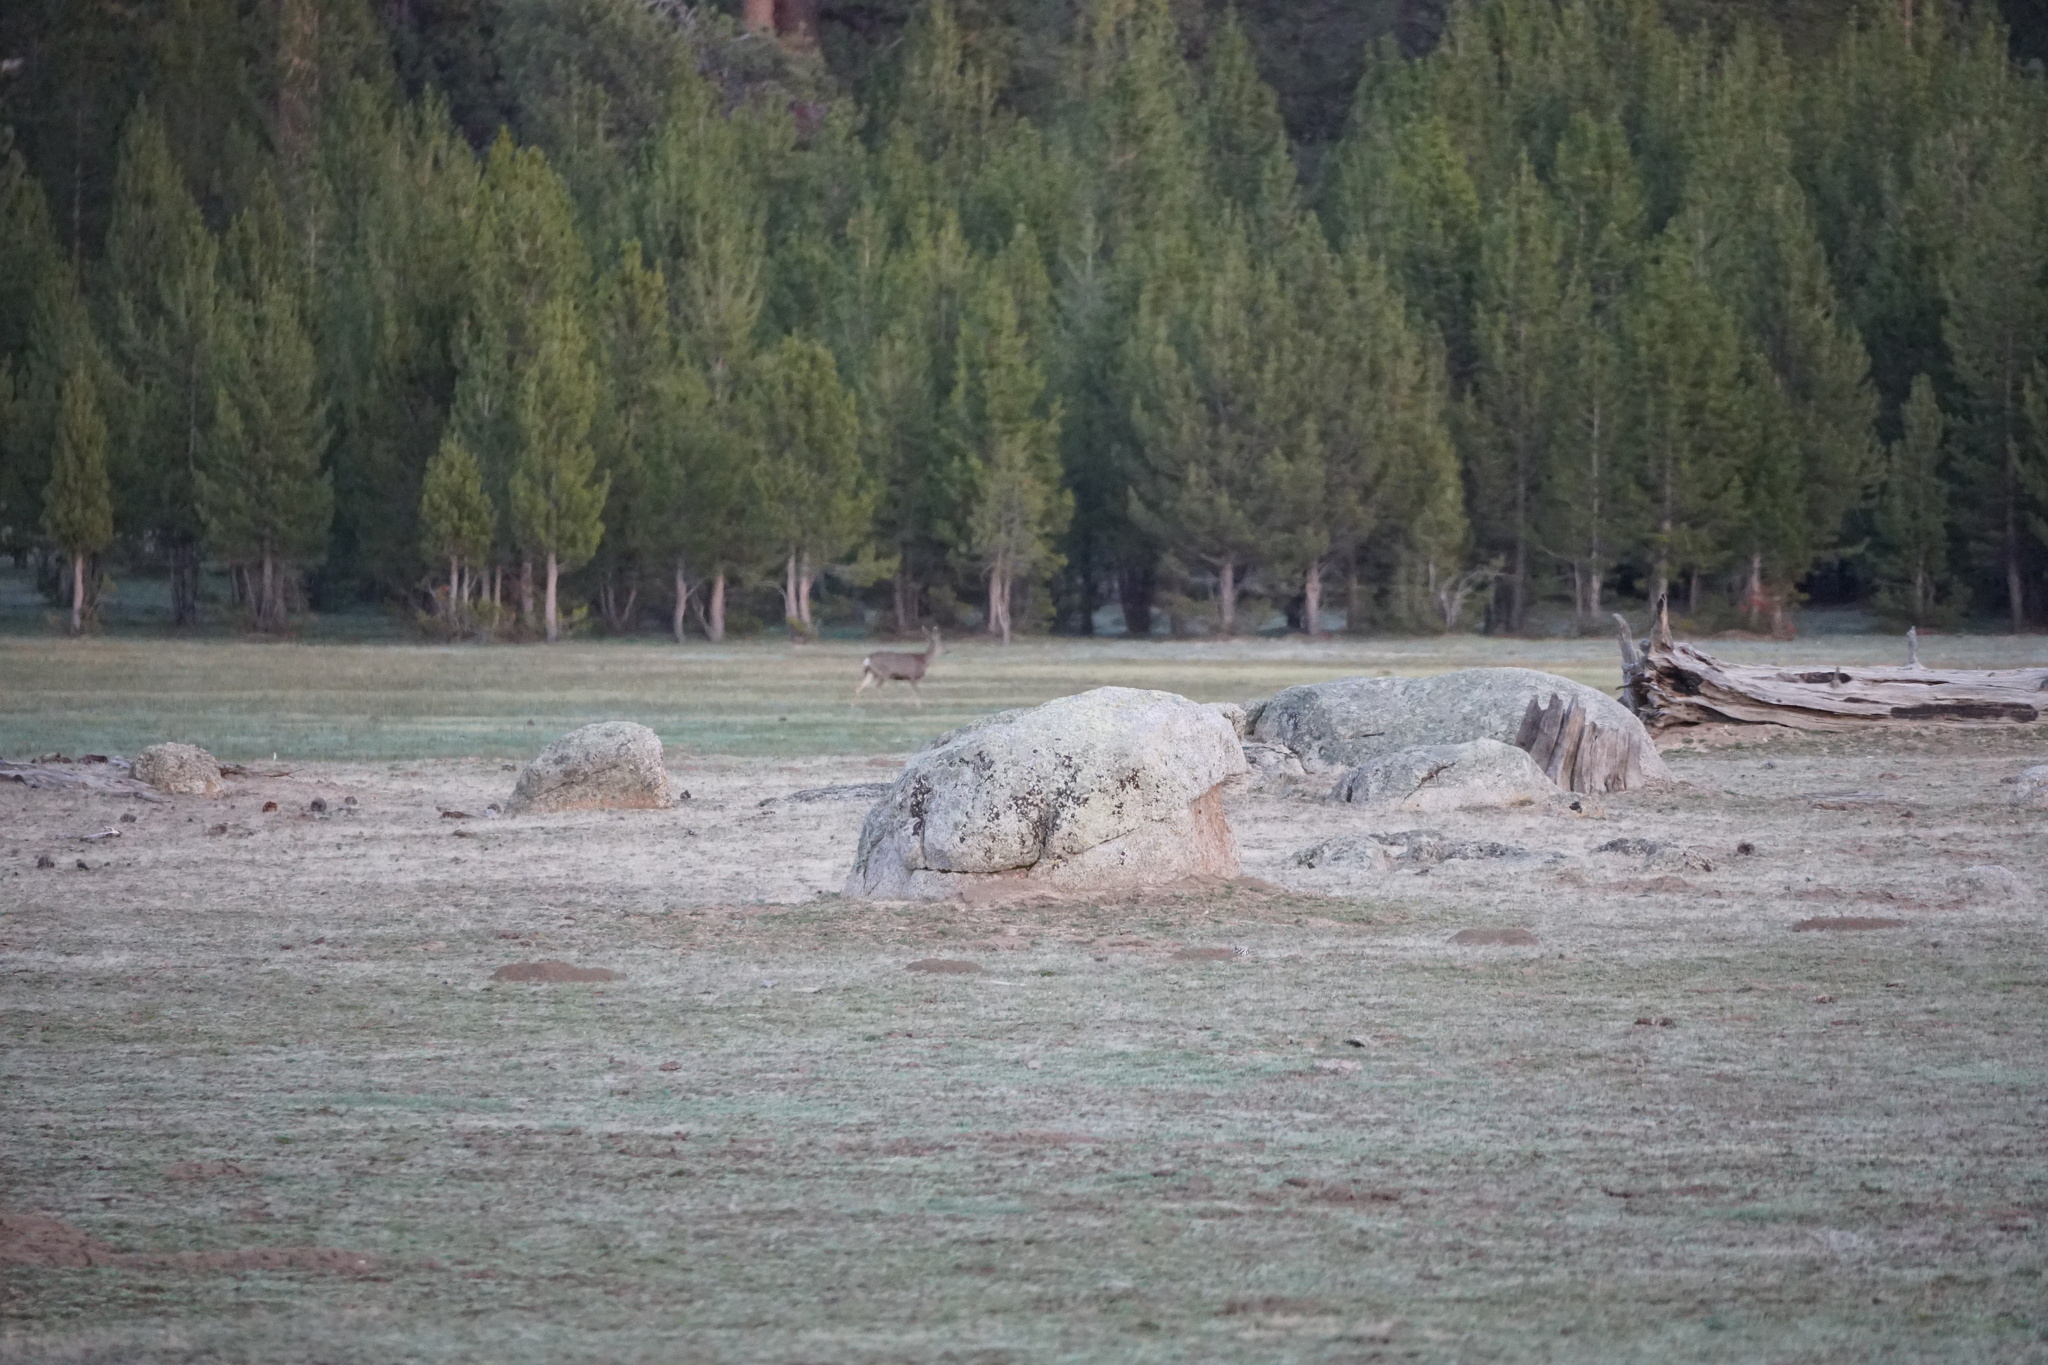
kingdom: Animalia
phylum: Chordata
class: Mammalia
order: Artiodactyla
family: Cervidae
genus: Odocoileus
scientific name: Odocoileus hemionus
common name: Mule deer
